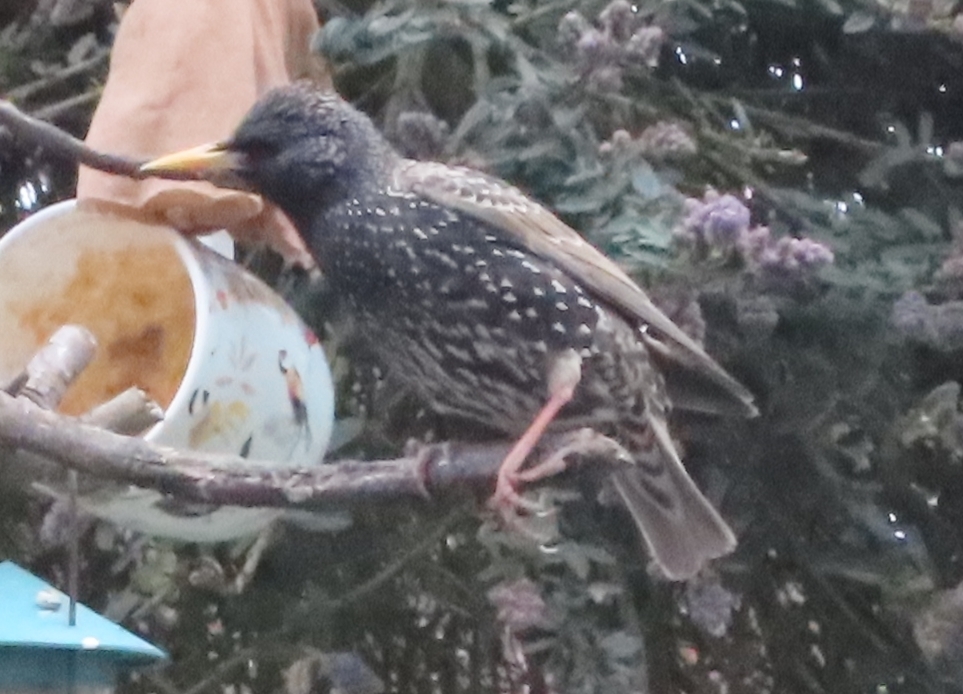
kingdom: Animalia
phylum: Chordata
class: Aves
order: Passeriformes
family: Sturnidae
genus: Sturnus
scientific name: Sturnus vulgaris
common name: Common starling
